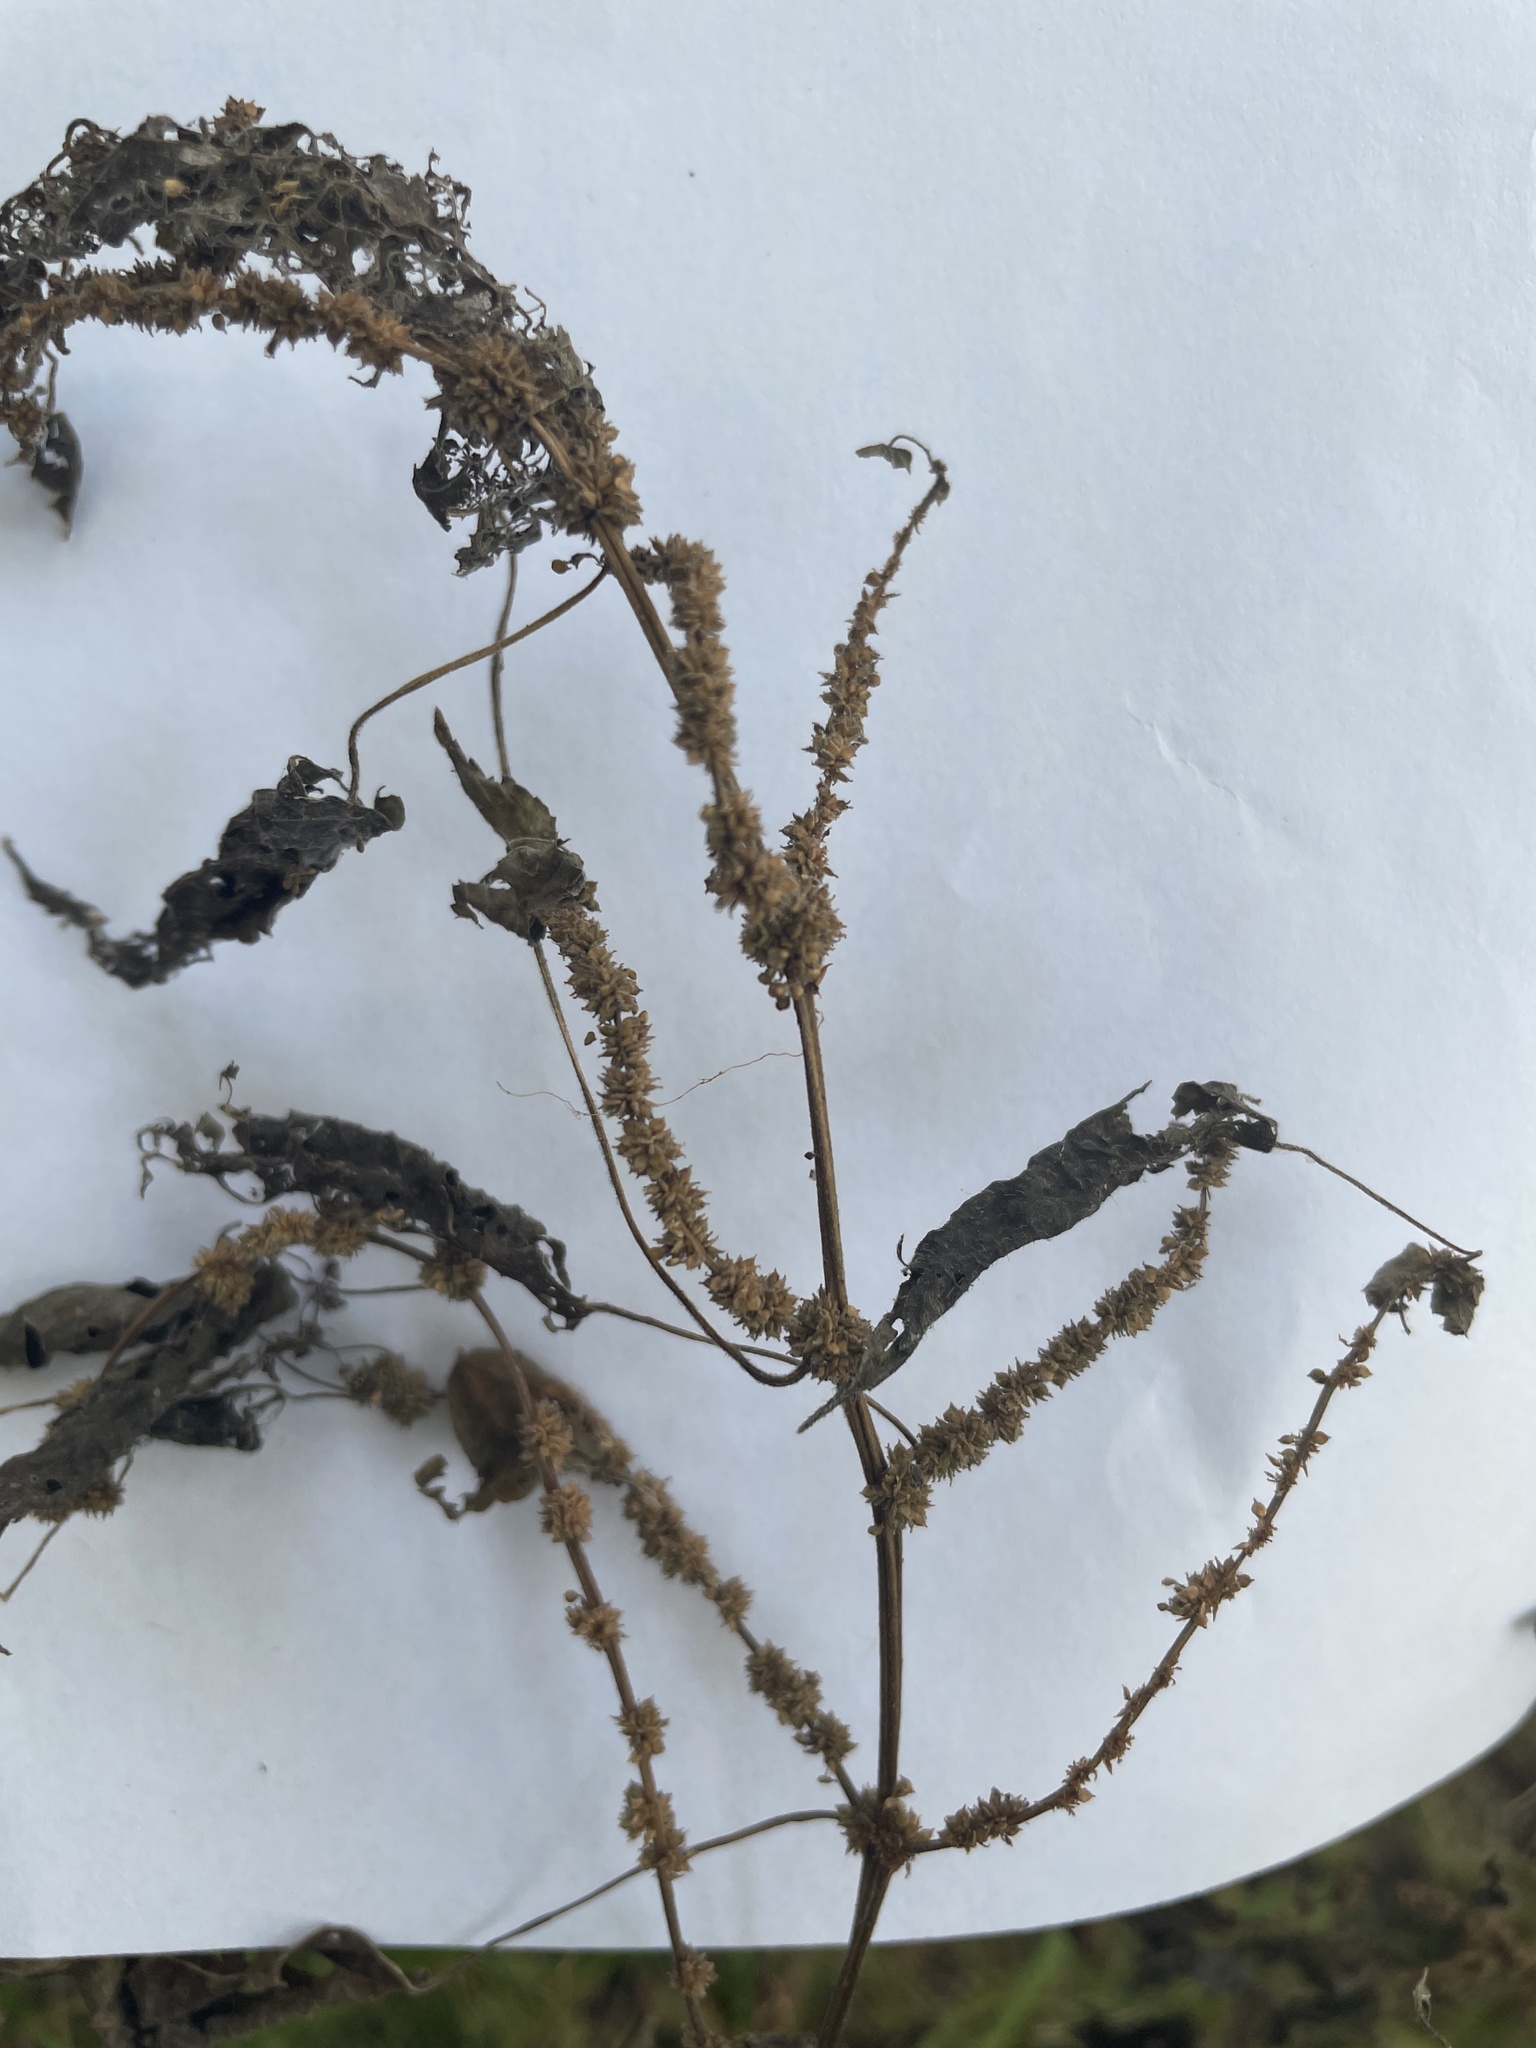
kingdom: Plantae
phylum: Tracheophyta
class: Magnoliopsida
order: Rosales
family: Urticaceae
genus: Boehmeria
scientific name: Boehmeria cylindrica
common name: Bog-hemp
